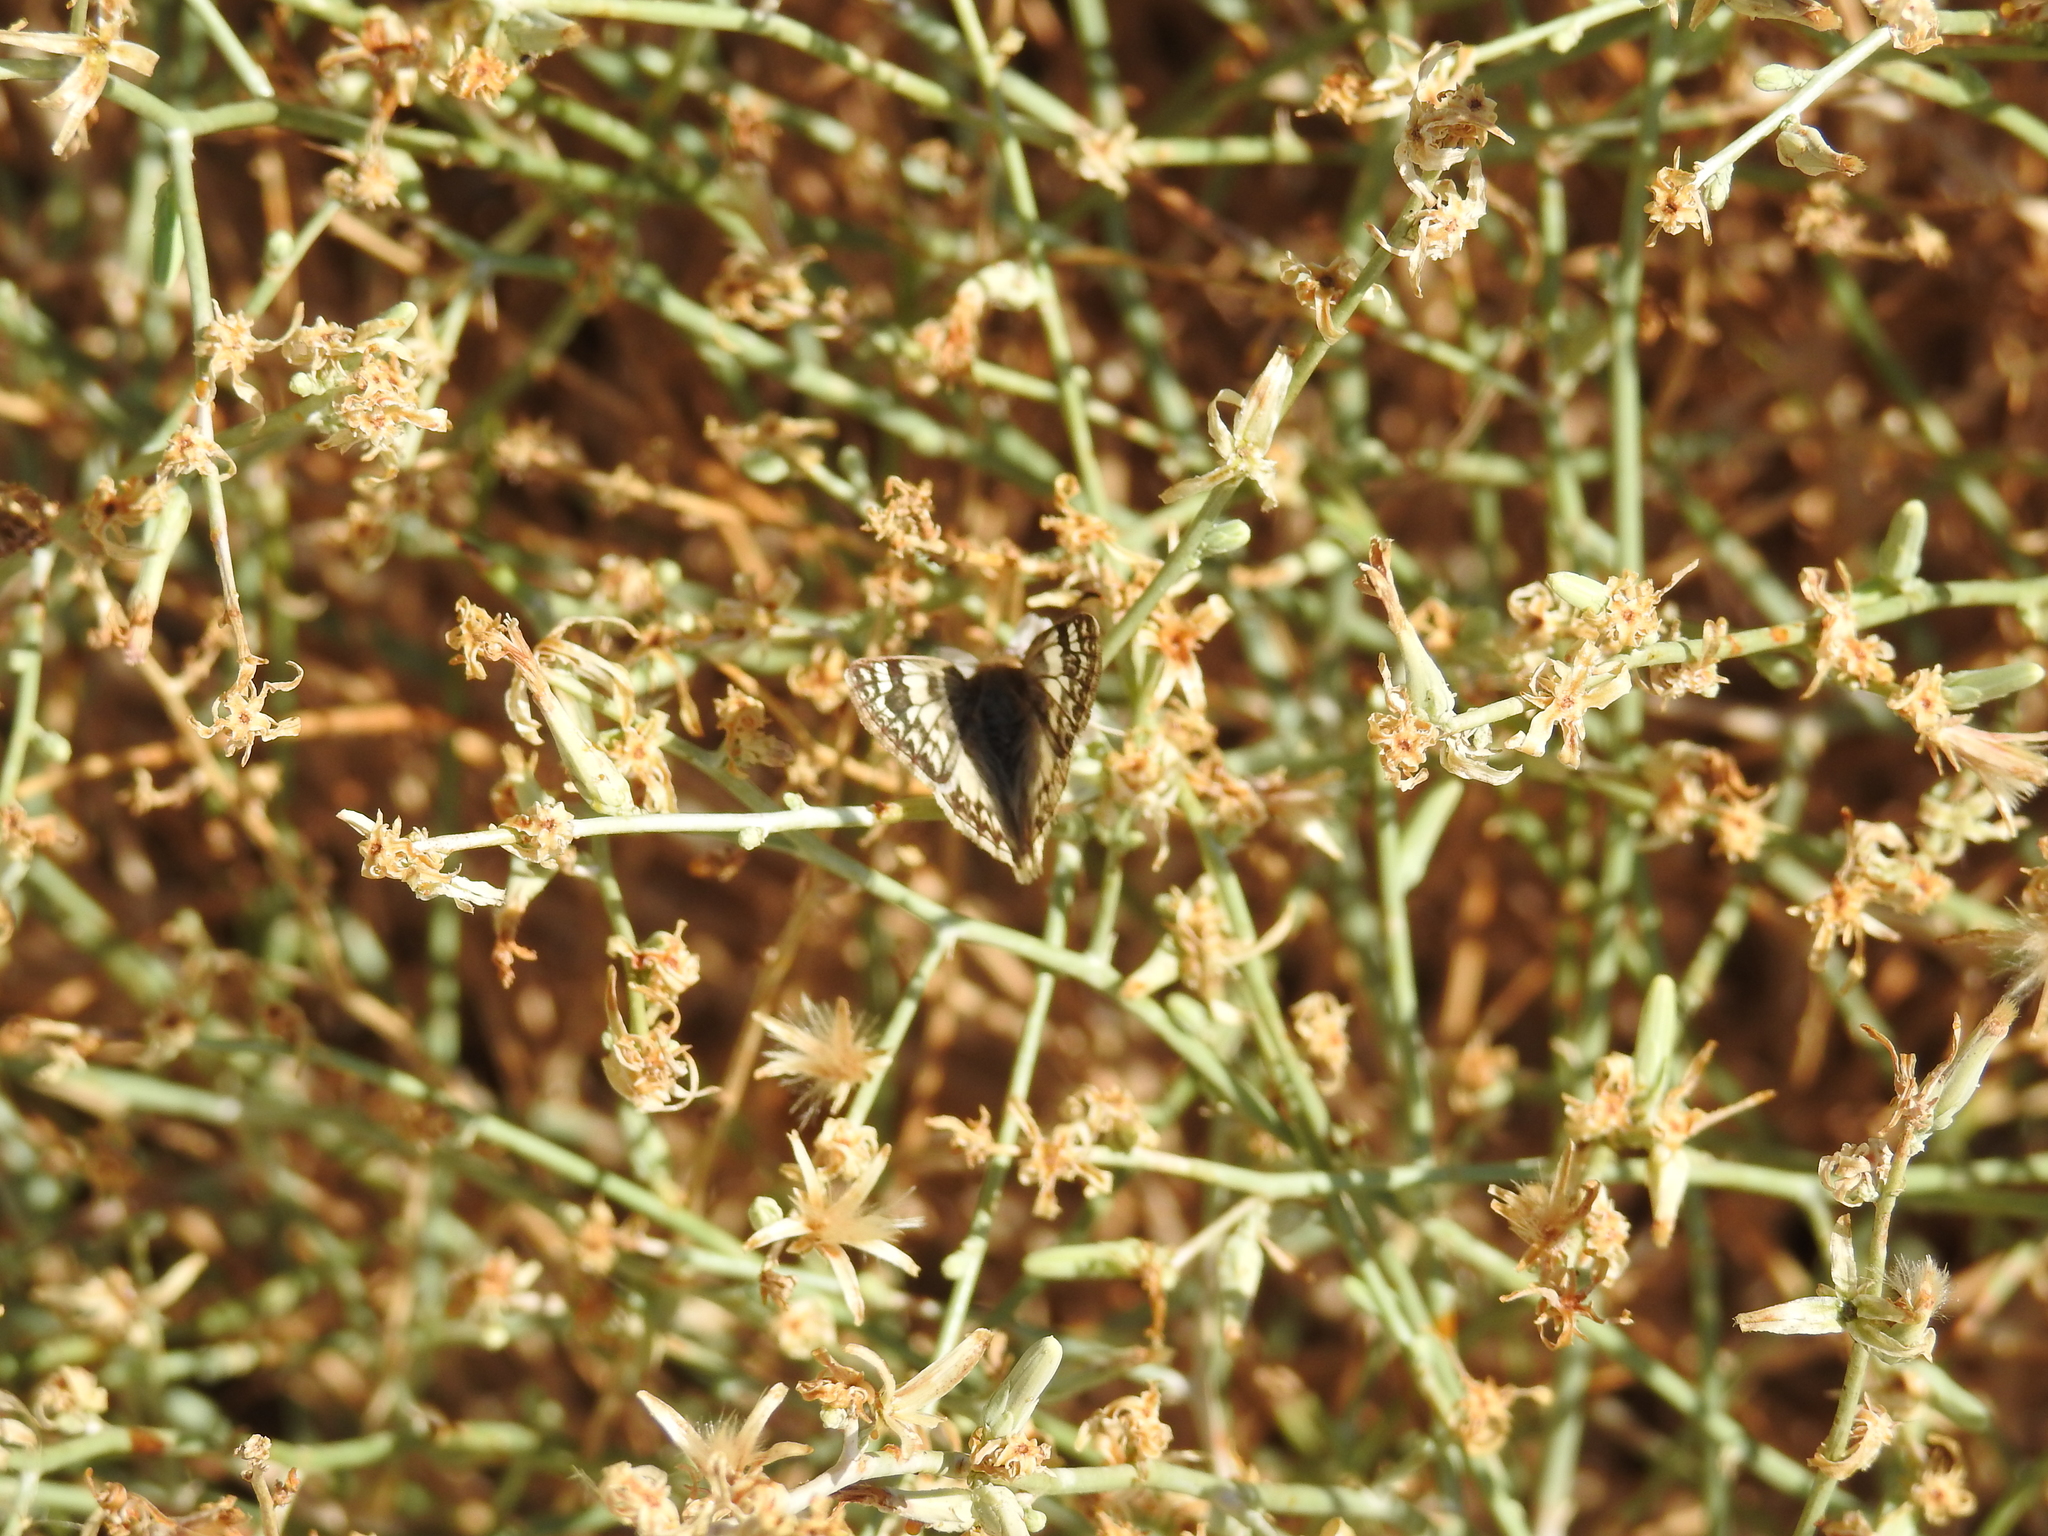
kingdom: Animalia
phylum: Arthropoda
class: Insecta
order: Lepidoptera
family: Hesperiidae
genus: Heliopetes
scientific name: Heliopetes ericetorum
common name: Northern white-skipper
